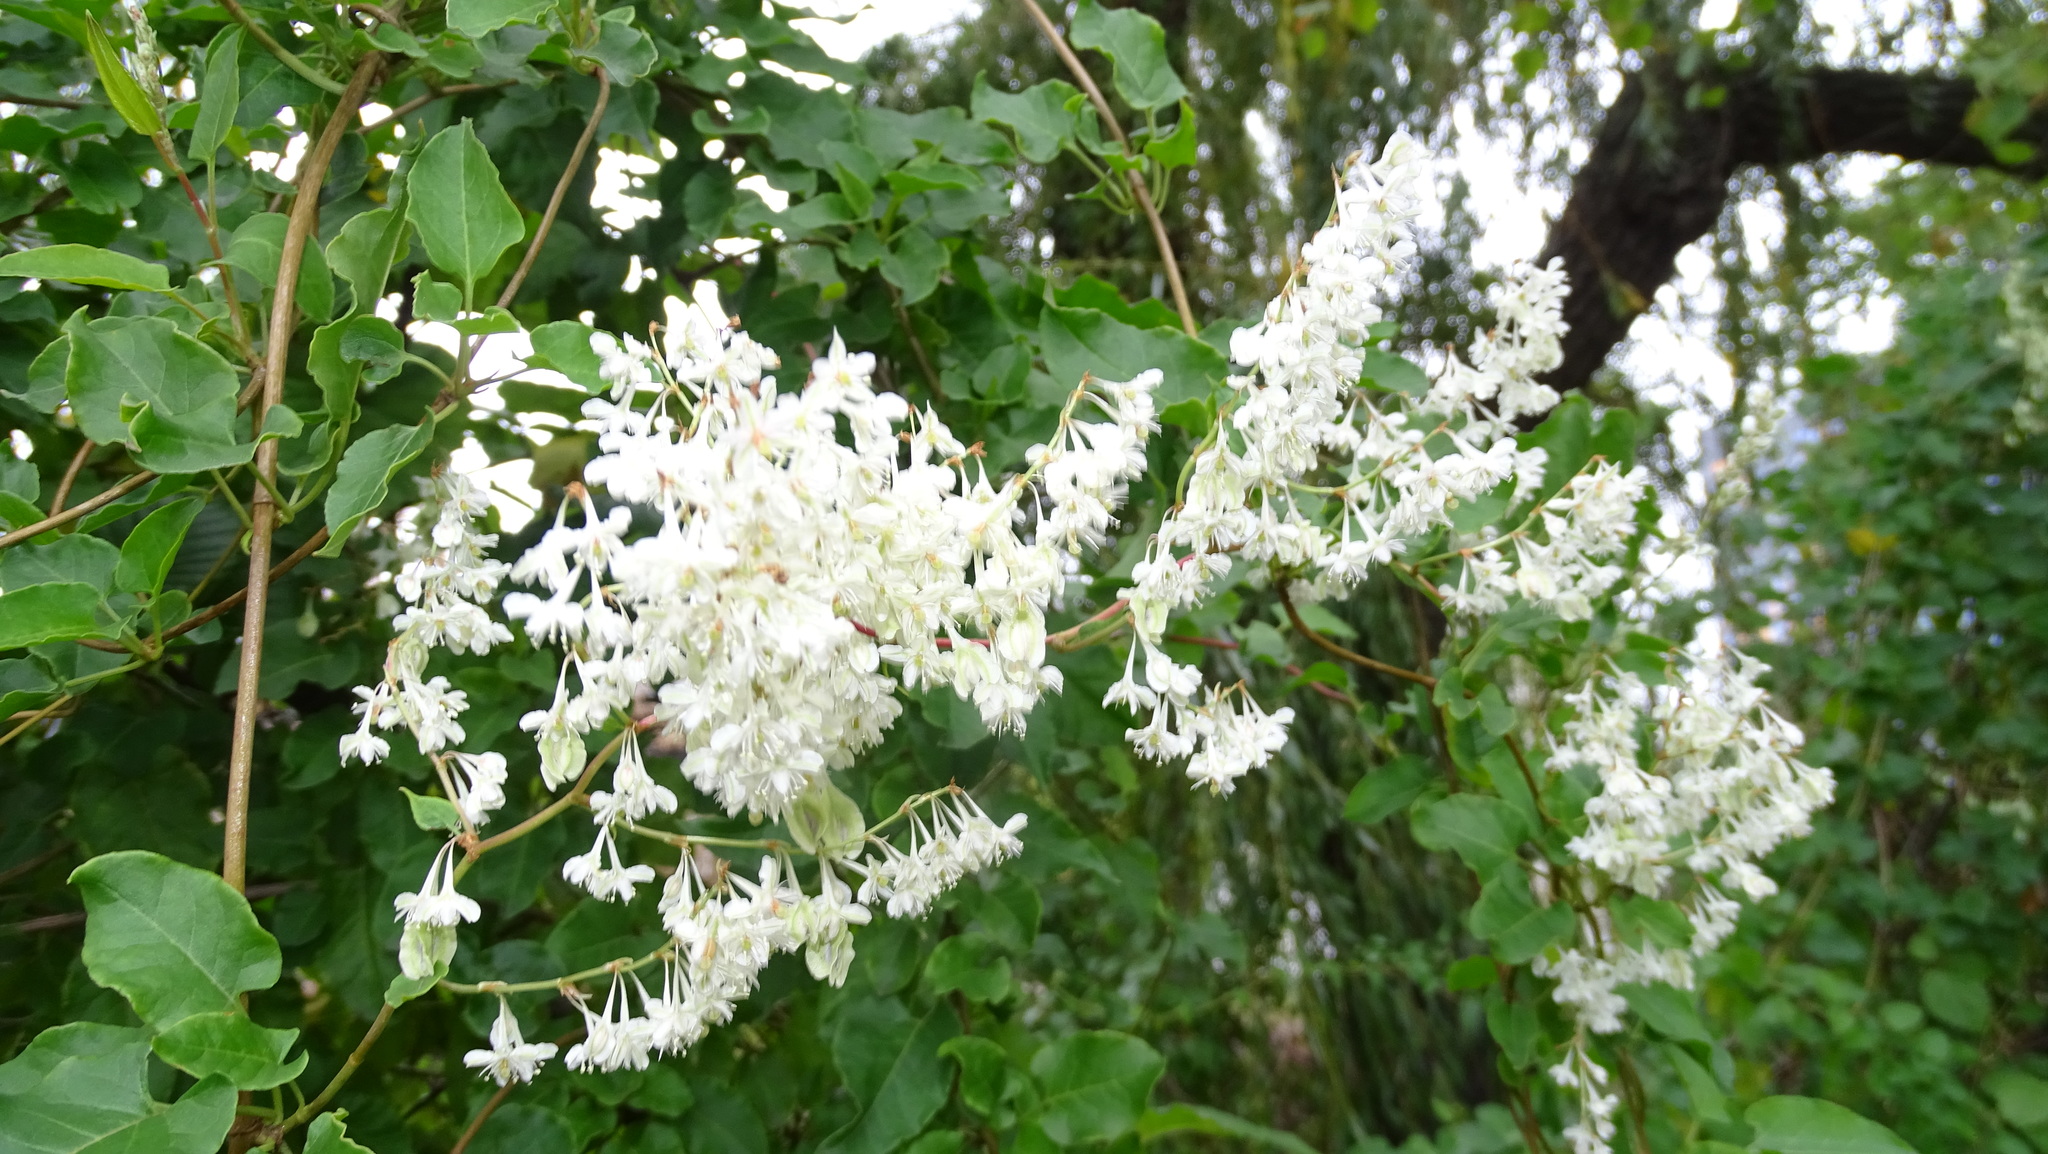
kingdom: Plantae
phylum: Tracheophyta
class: Magnoliopsida
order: Caryophyllales
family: Polygonaceae
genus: Fallopia
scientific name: Fallopia baldschuanica
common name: Russian-vine
